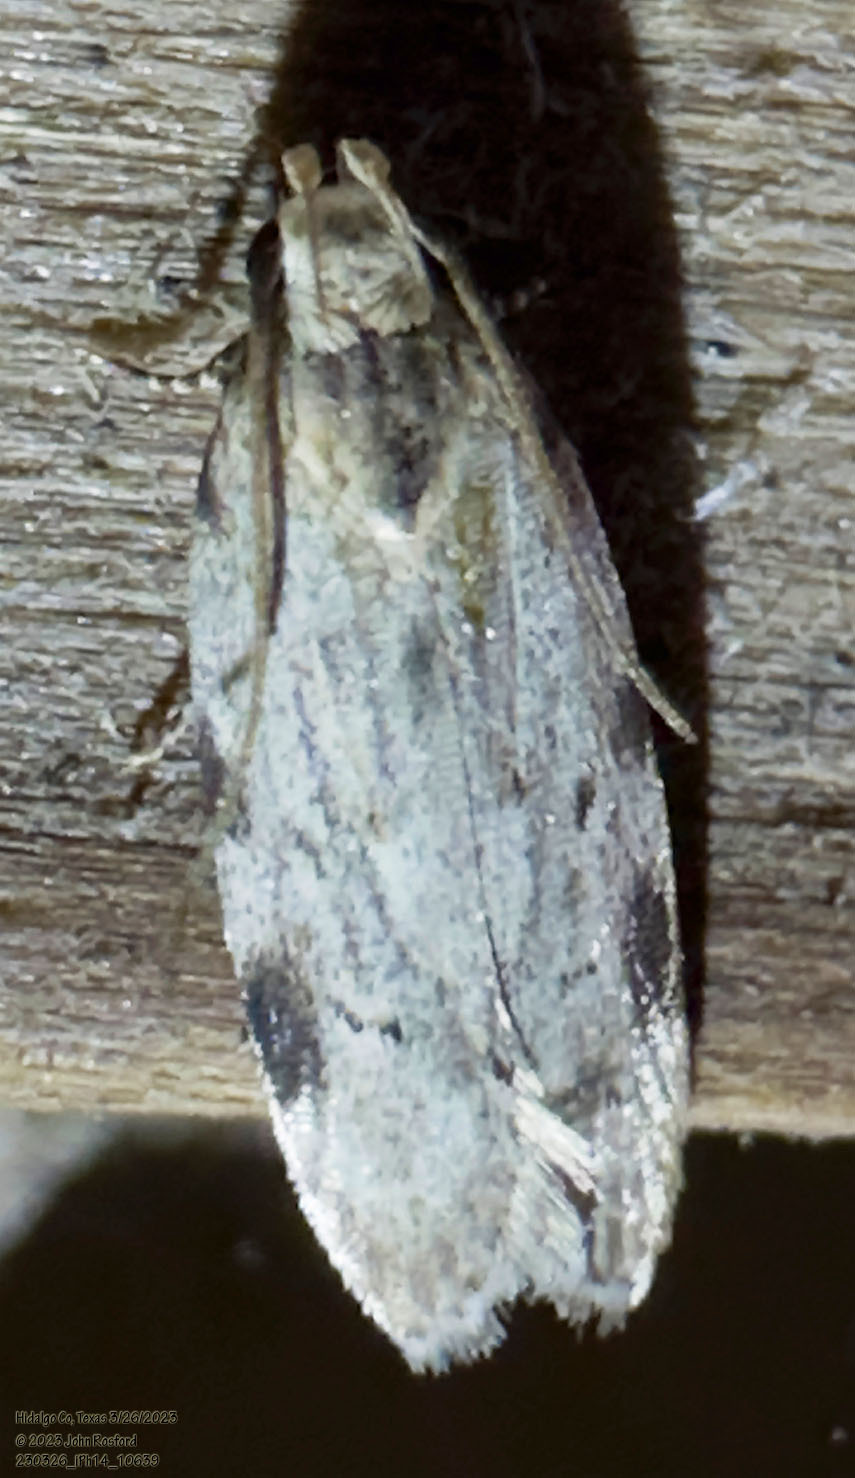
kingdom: Animalia
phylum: Arthropoda
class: Insecta
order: Lepidoptera
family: Gelechiidae
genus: Friseria
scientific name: Friseria cockerelli
